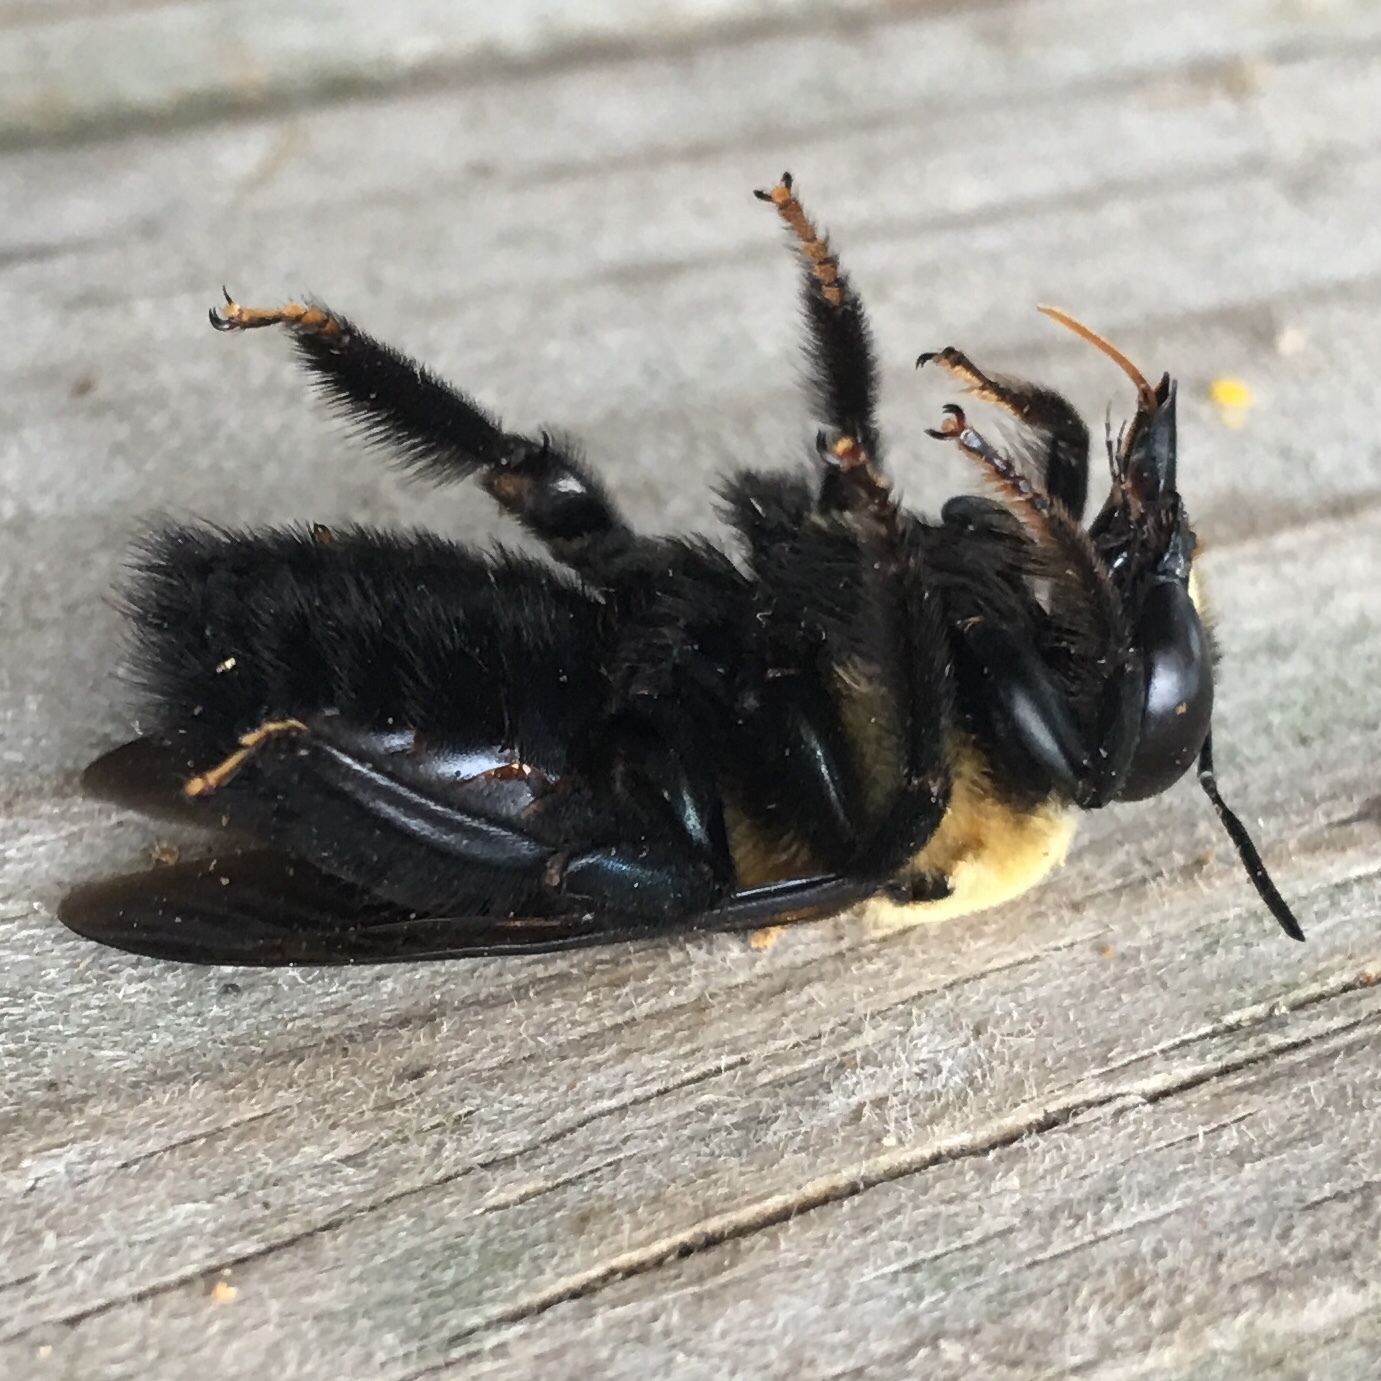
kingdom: Animalia
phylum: Arthropoda
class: Insecta
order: Hymenoptera
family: Apidae
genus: Xylocopa
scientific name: Xylocopa virginica
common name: Carpenter bee
